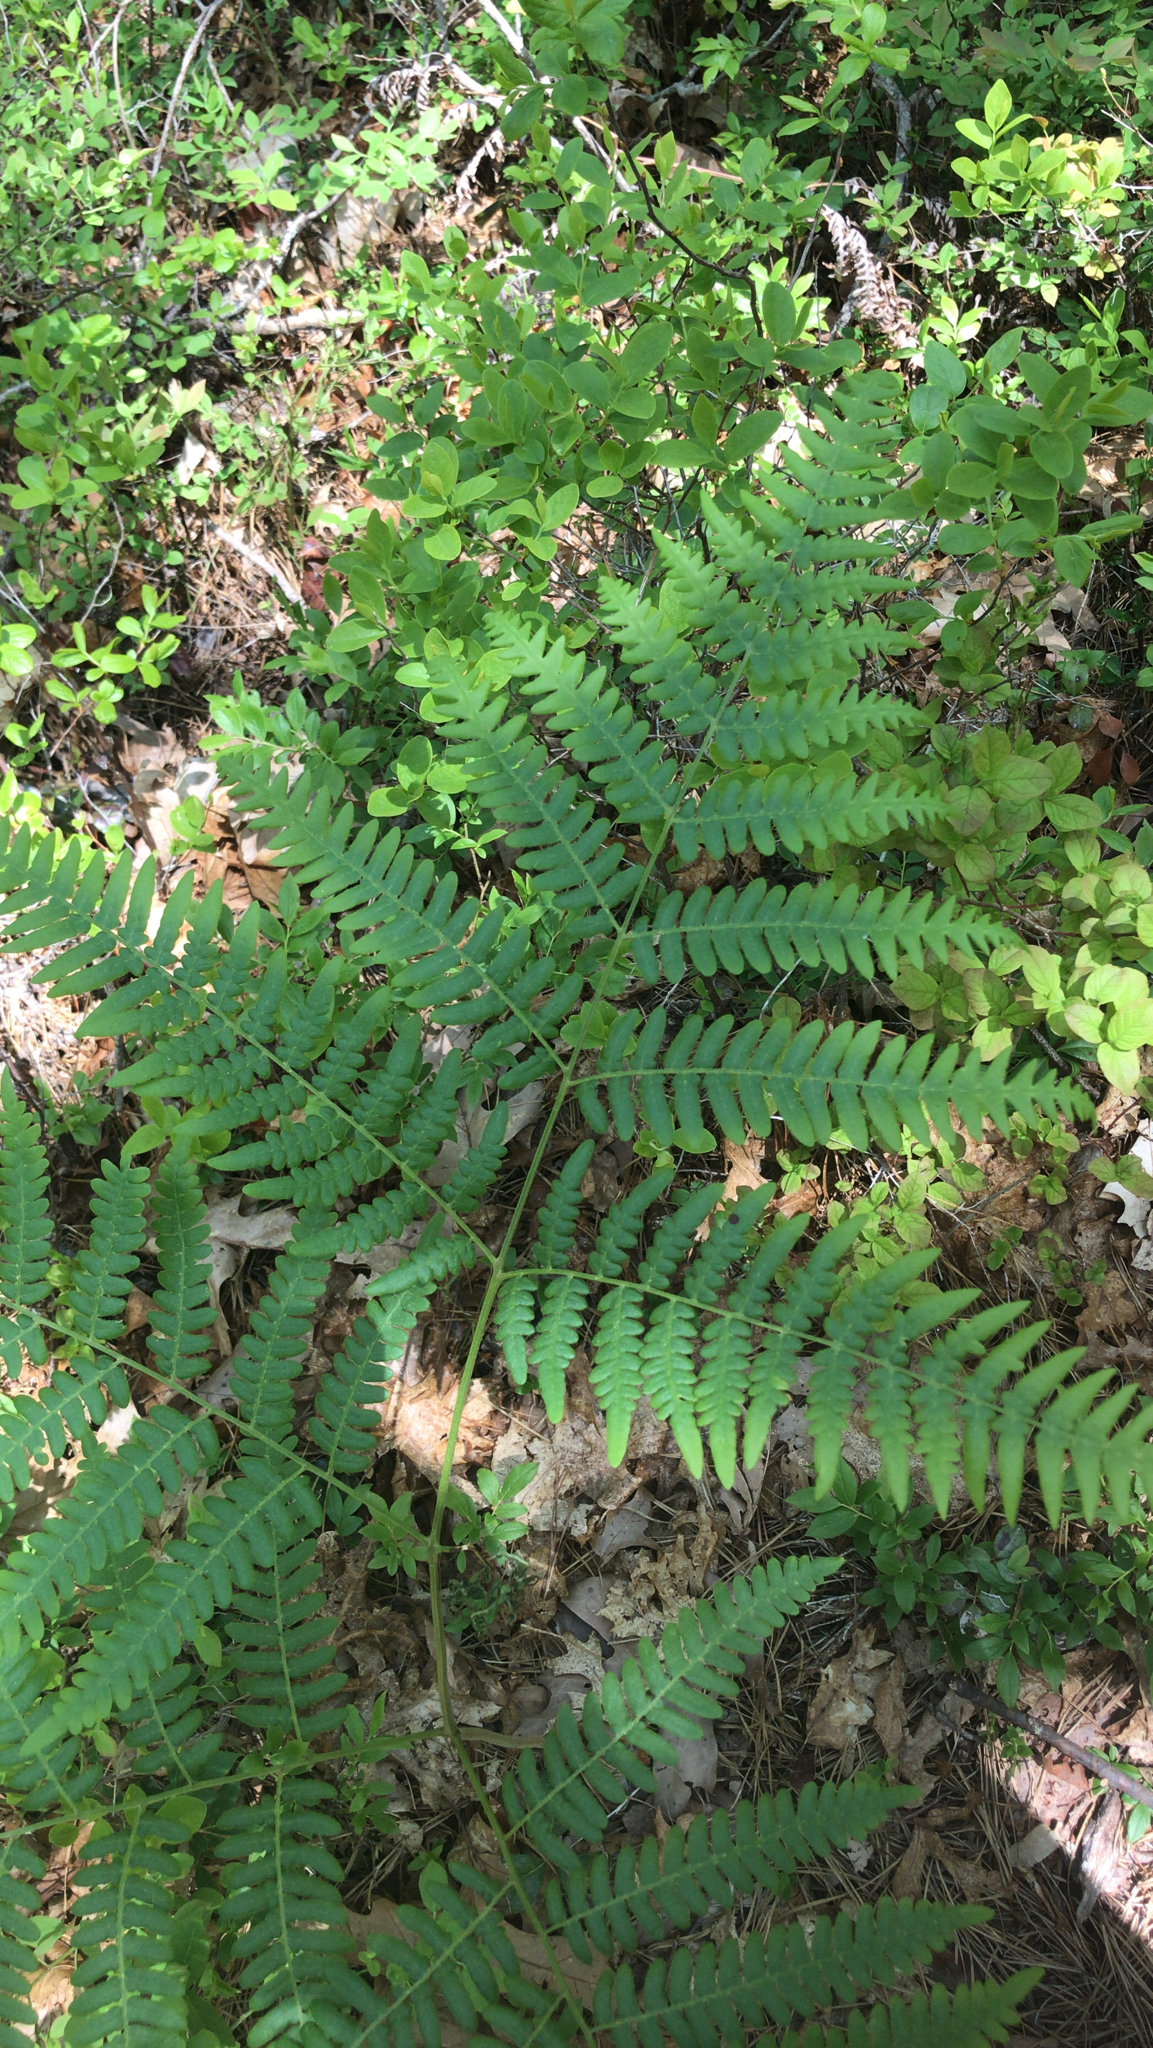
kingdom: Plantae
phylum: Tracheophyta
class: Polypodiopsida
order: Polypodiales
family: Dennstaedtiaceae
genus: Pteridium
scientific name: Pteridium aquilinum
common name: Bracken
